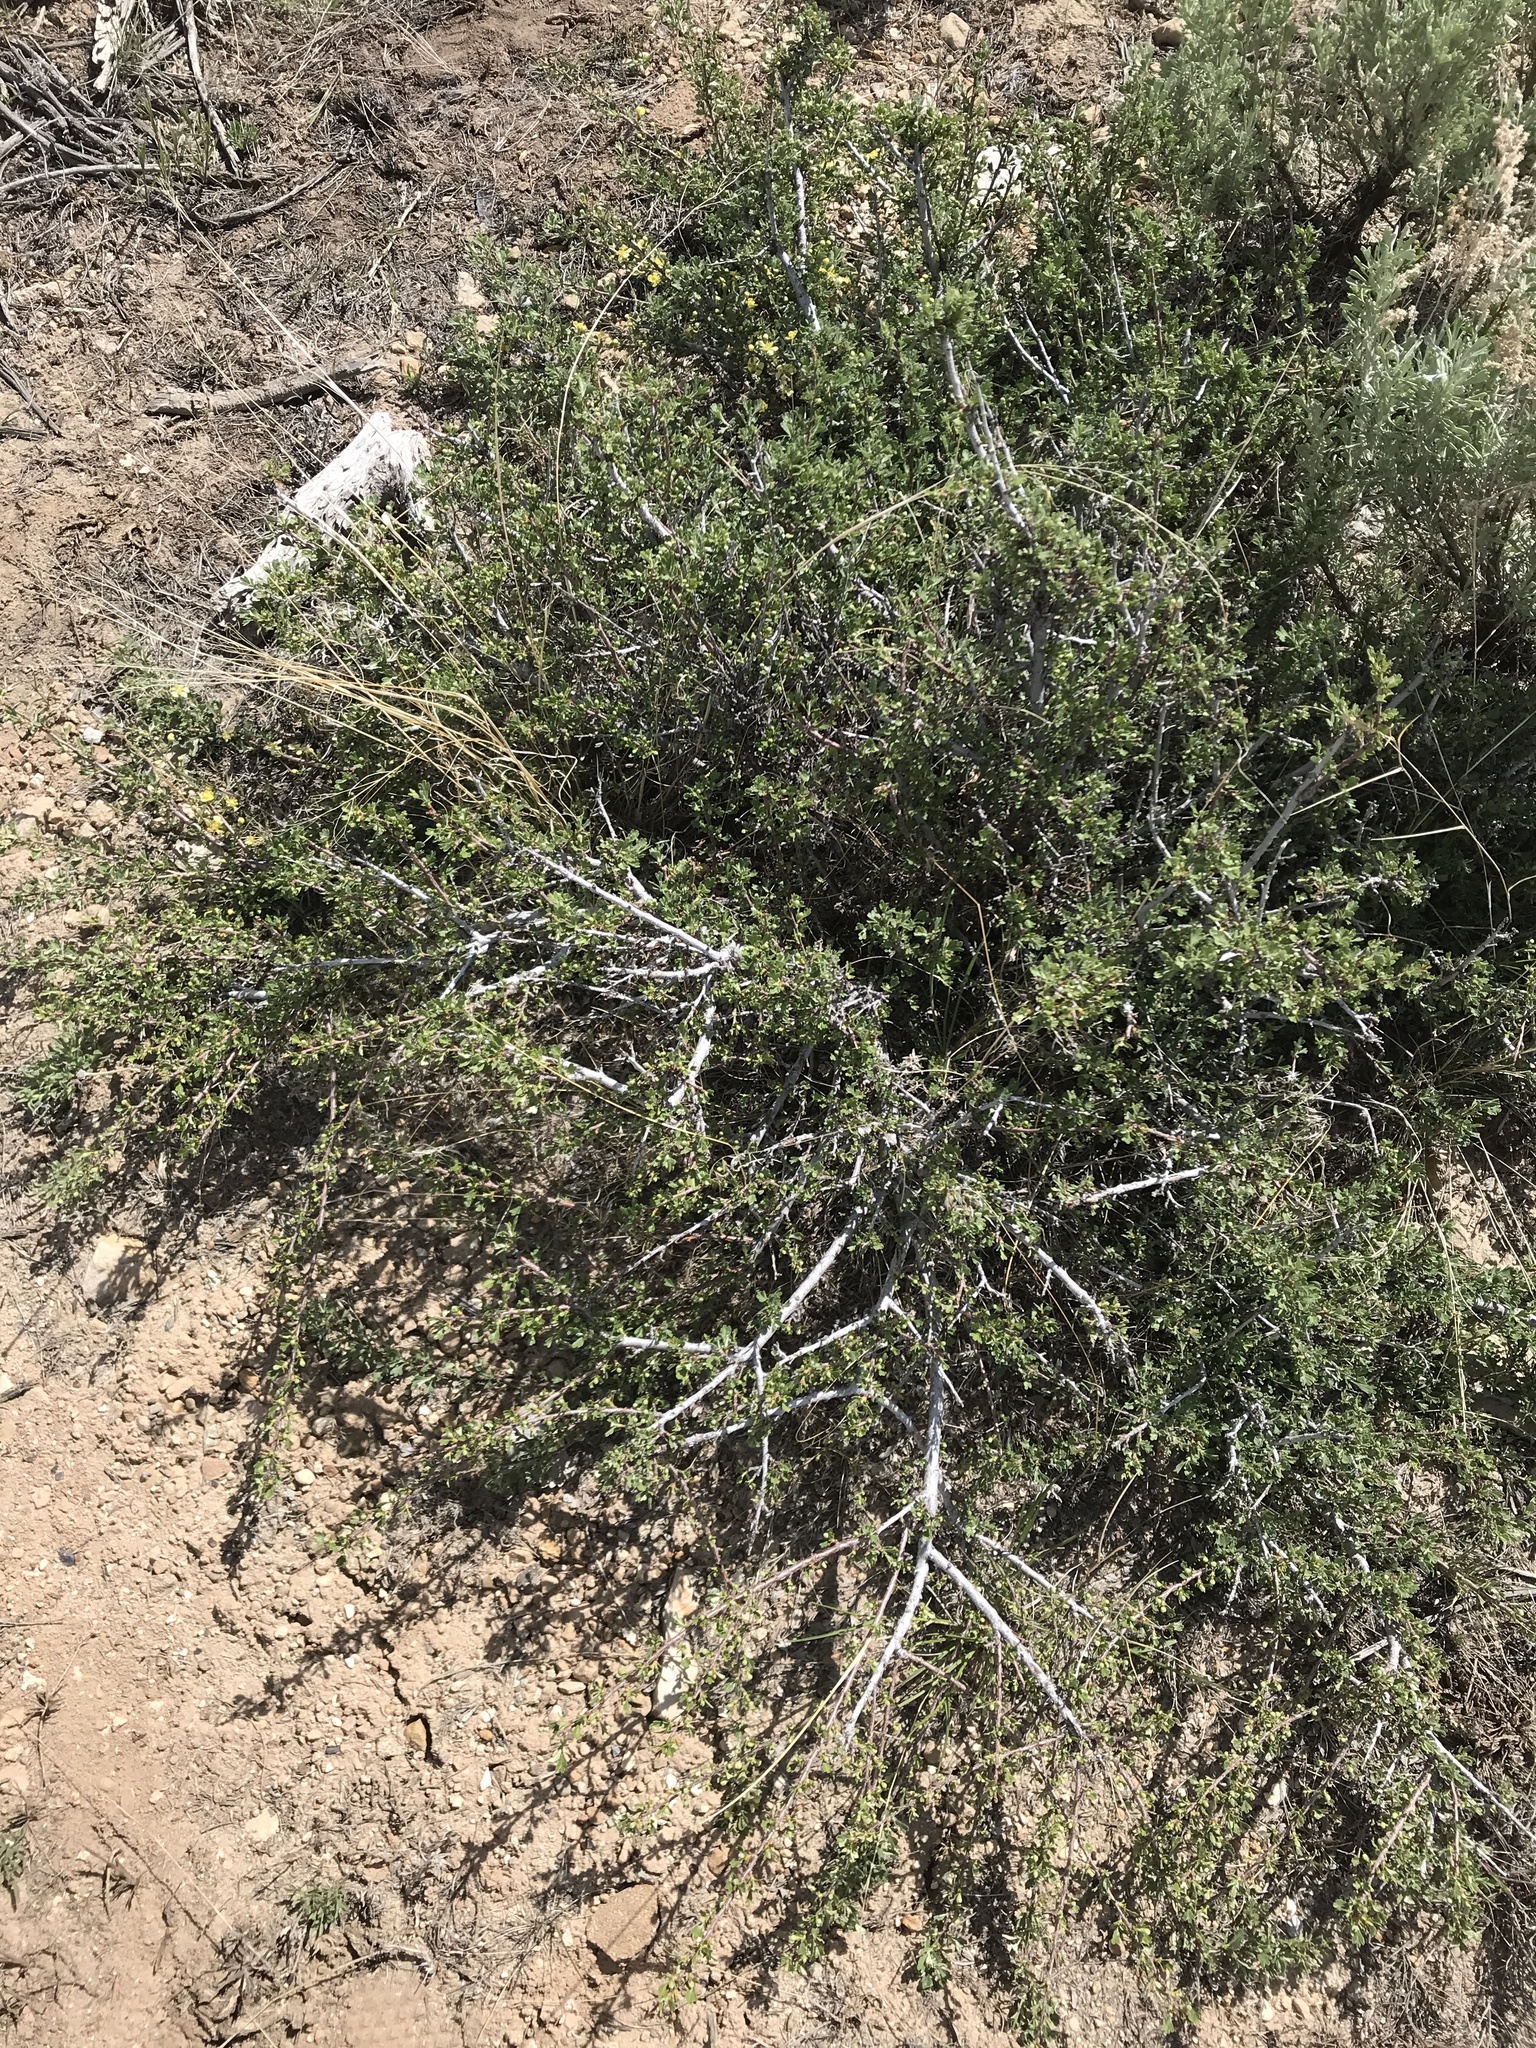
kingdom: Plantae
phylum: Tracheophyta
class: Magnoliopsida
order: Rosales
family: Rosaceae
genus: Purshia
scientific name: Purshia tridentata
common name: Antelope bitterbrush
